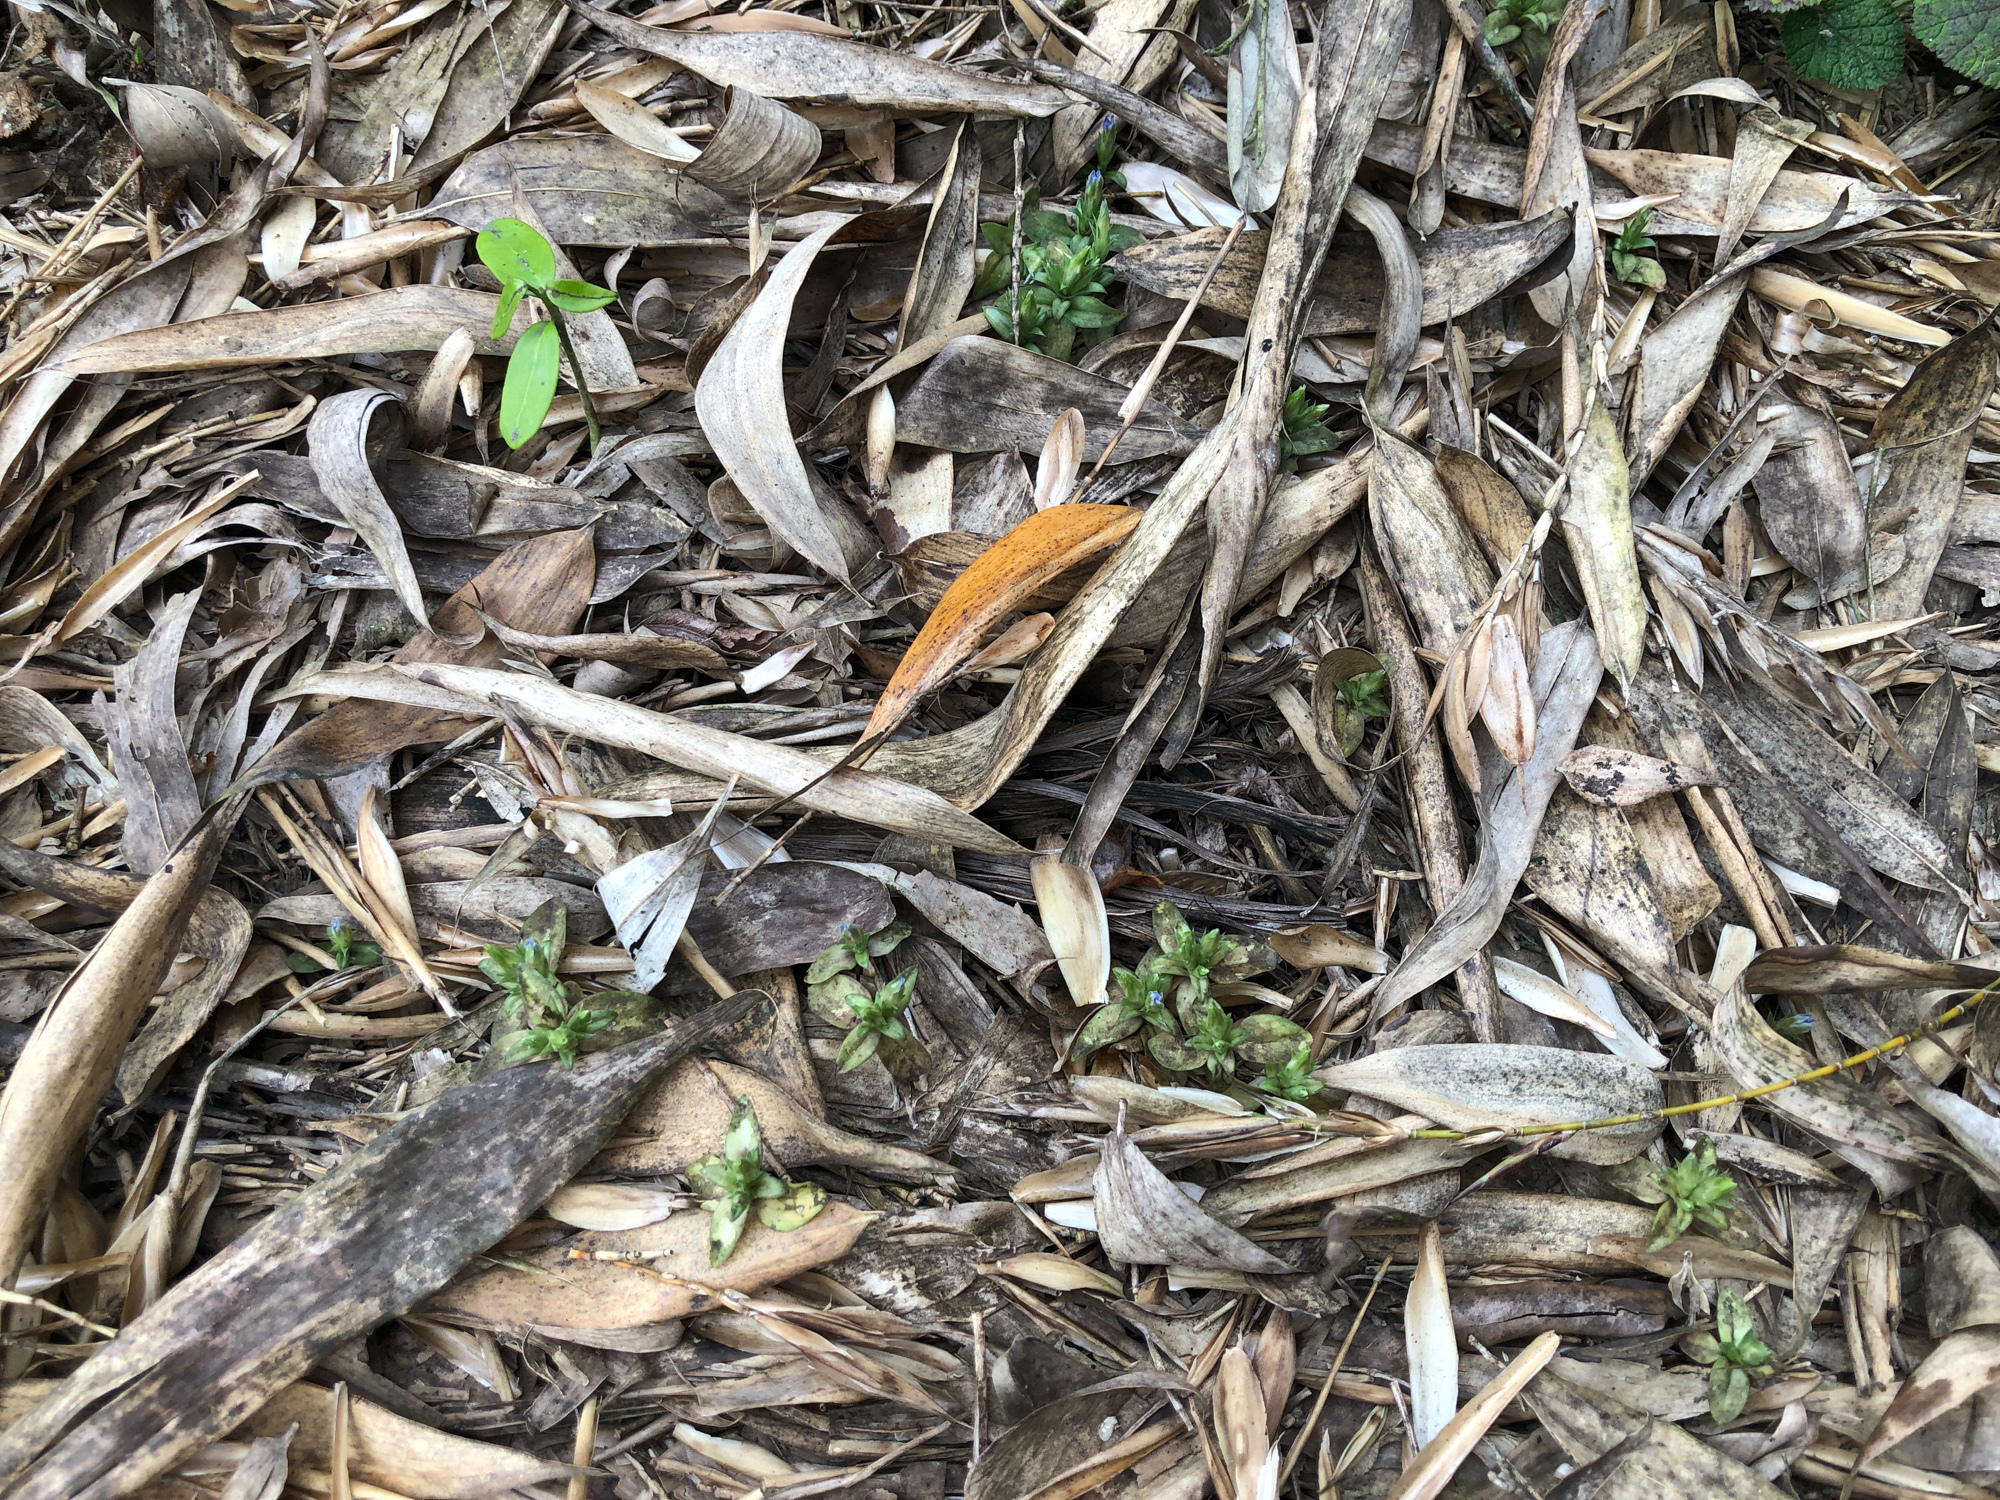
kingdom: Plantae
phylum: Tracheophyta
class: Magnoliopsida
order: Gentianales
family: Gentianaceae
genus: Gentiana
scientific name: Gentiana bambuseti
